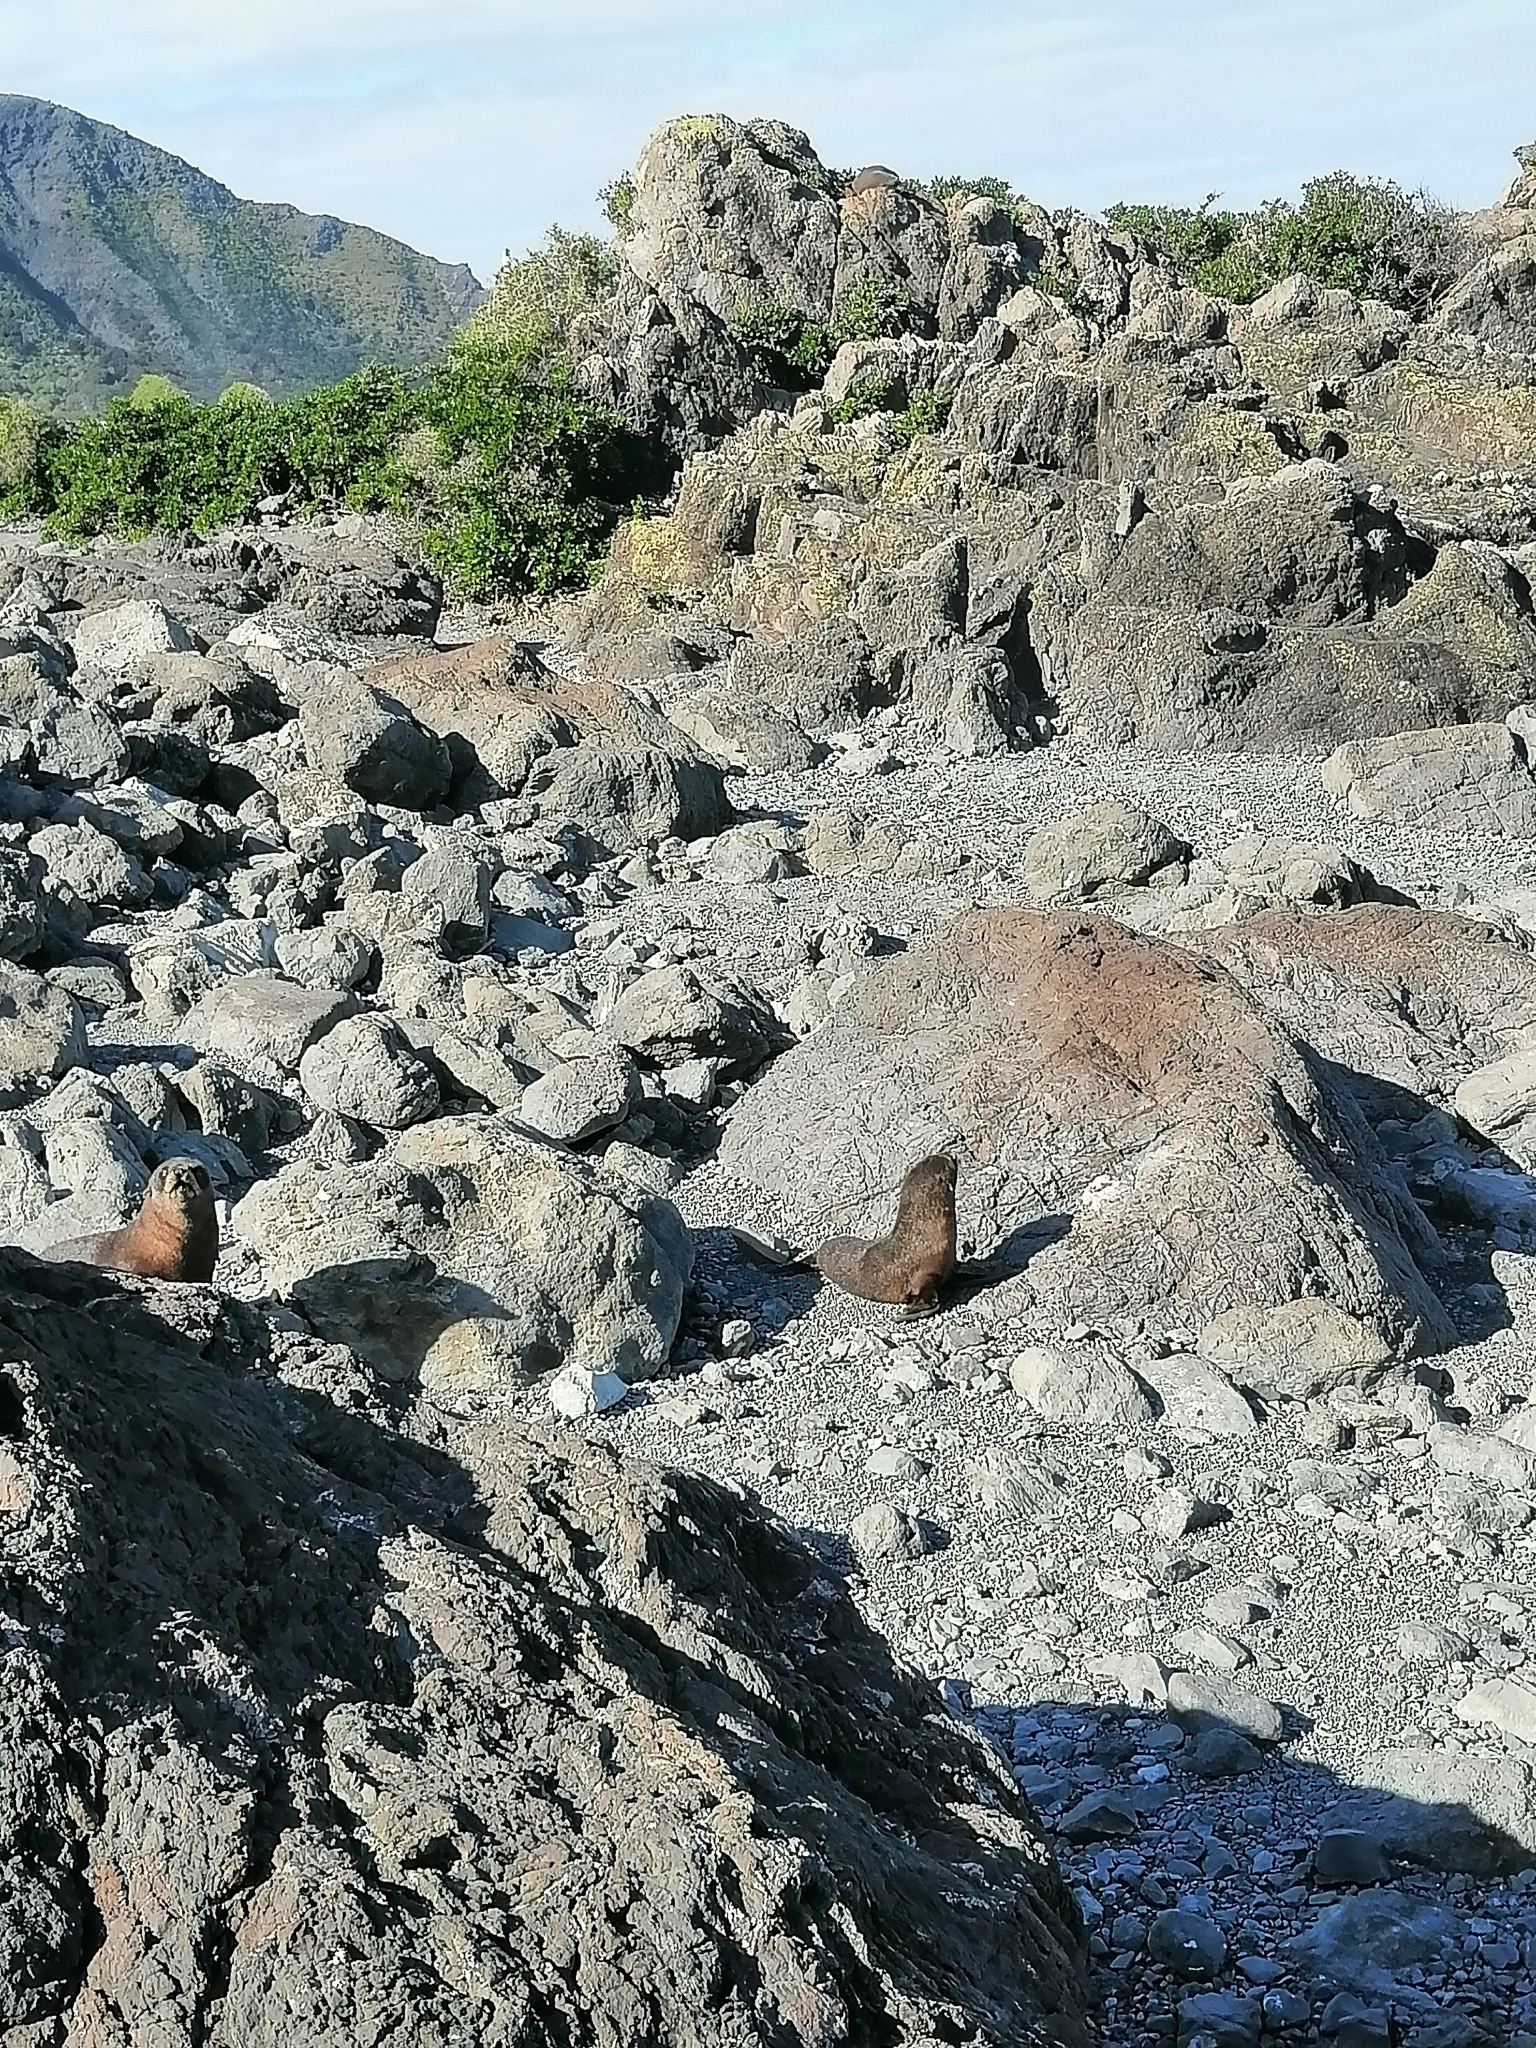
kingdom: Animalia
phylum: Chordata
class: Mammalia
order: Carnivora
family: Otariidae
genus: Arctocephalus
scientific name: Arctocephalus forsteri
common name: New zealand fur seal
